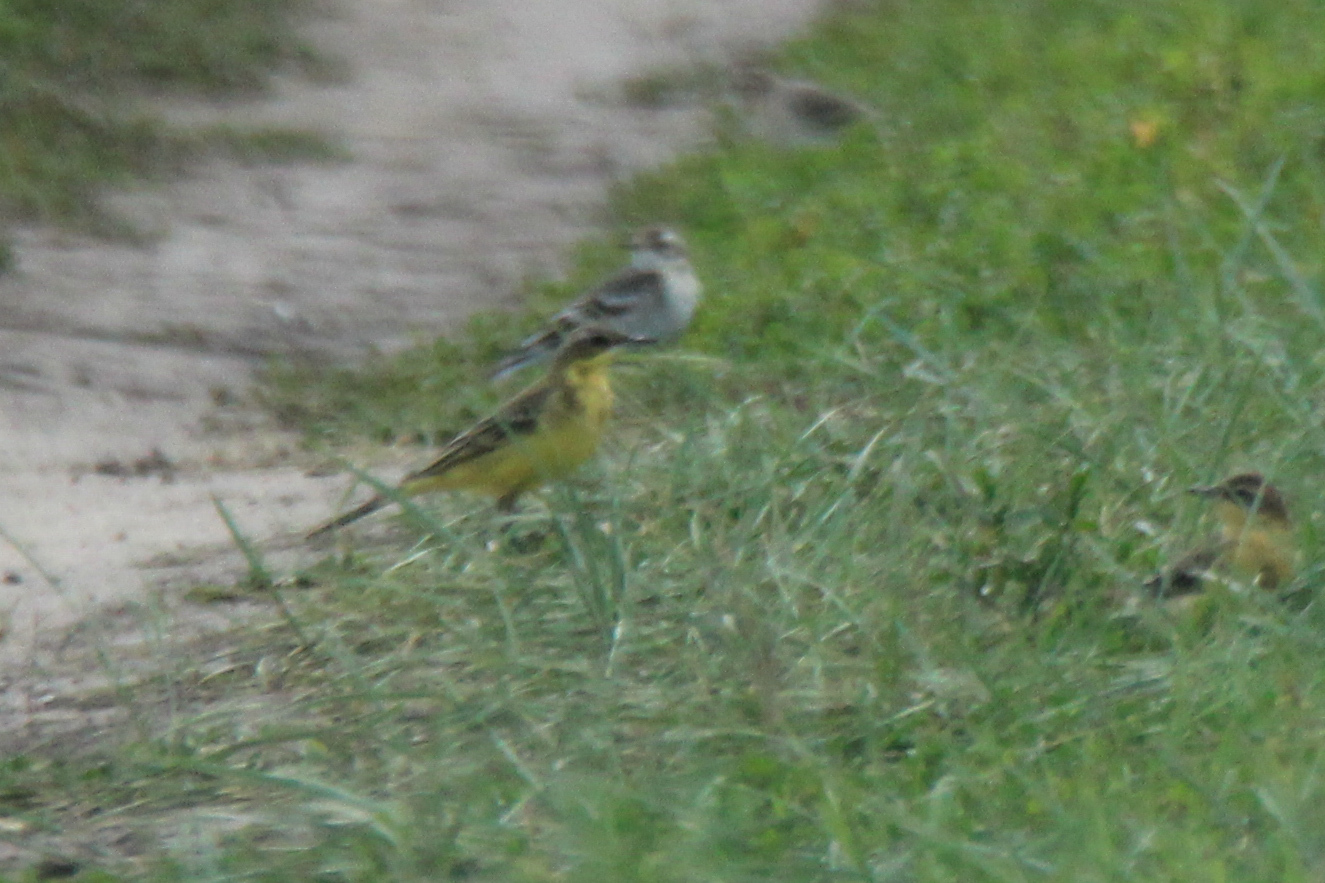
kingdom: Animalia
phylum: Chordata
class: Aves
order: Passeriformes
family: Motacillidae
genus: Motacilla
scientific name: Motacilla flava
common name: Western yellow wagtail
